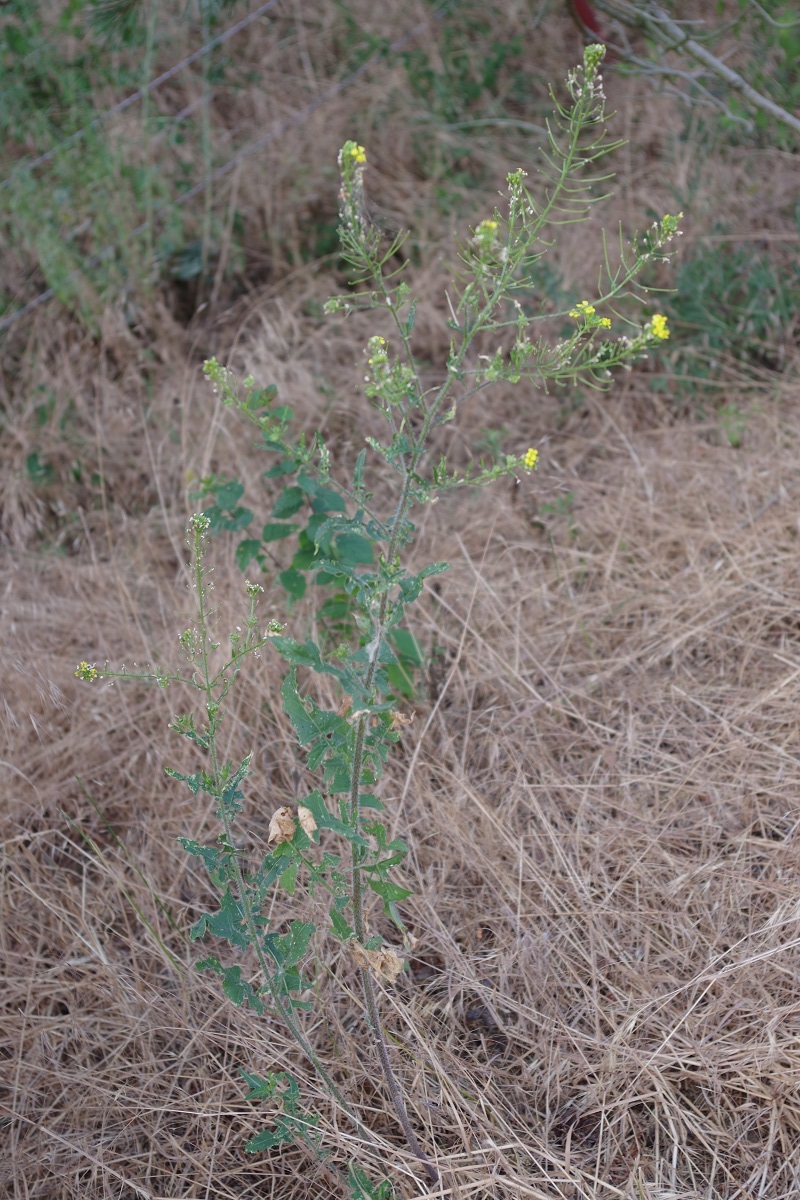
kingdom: Plantae
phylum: Tracheophyta
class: Magnoliopsida
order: Brassicales
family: Brassicaceae
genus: Sisymbrium
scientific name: Sisymbrium loeselii
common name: False london-rocket
